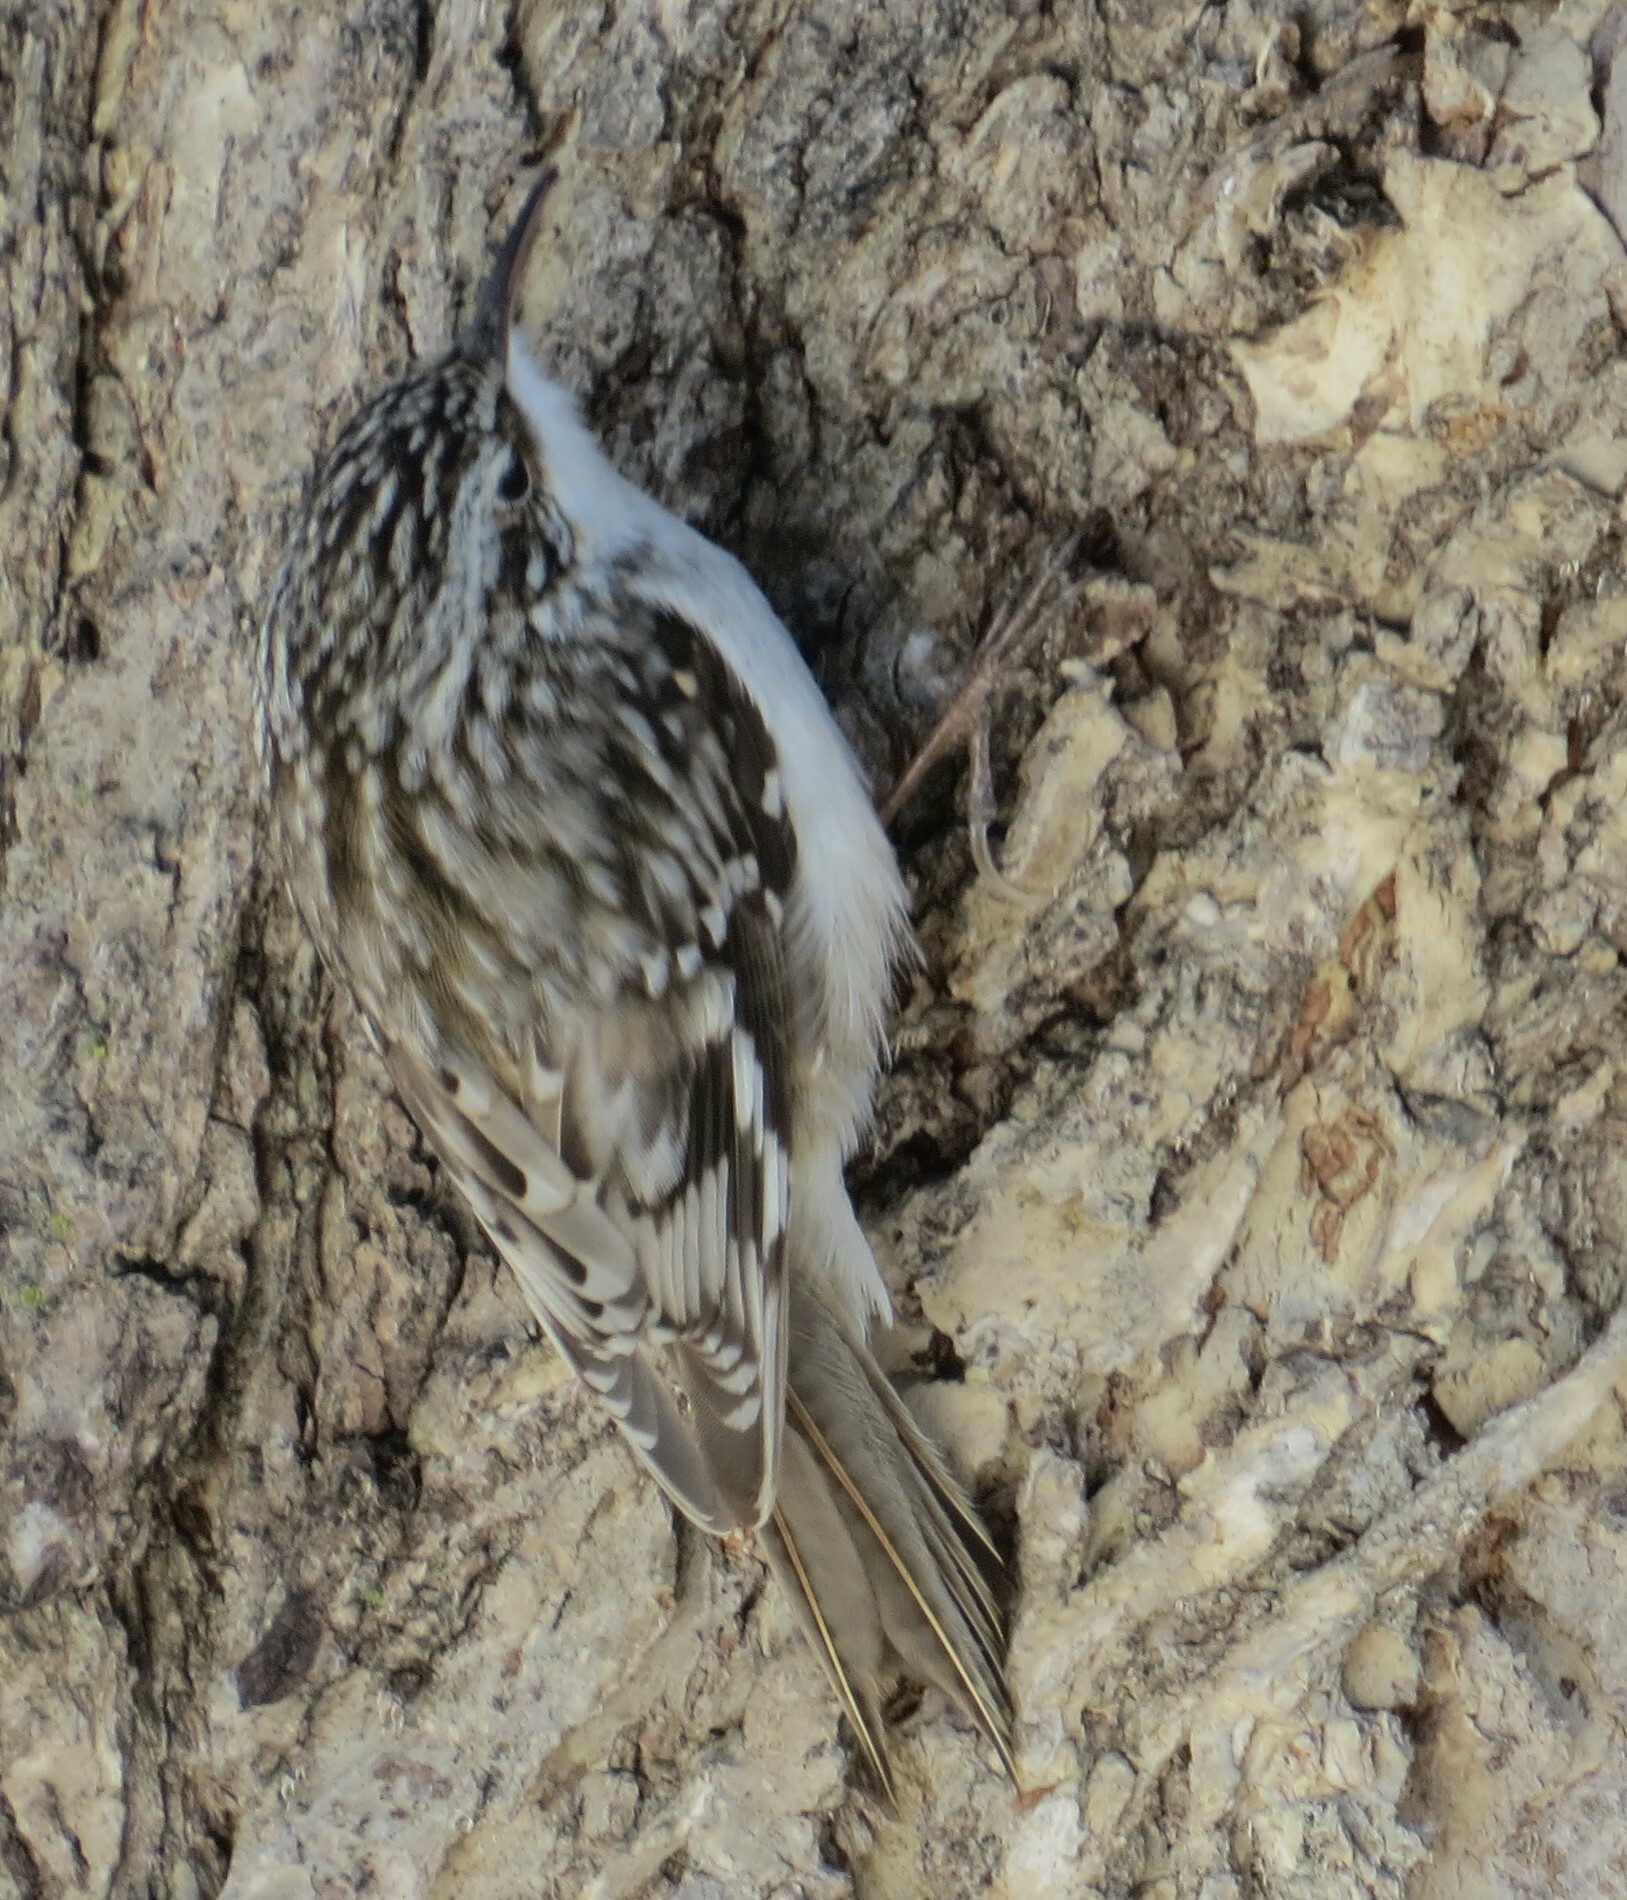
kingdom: Animalia
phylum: Chordata
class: Aves
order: Passeriformes
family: Certhiidae
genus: Certhia
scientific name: Certhia americana
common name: Brown creeper
